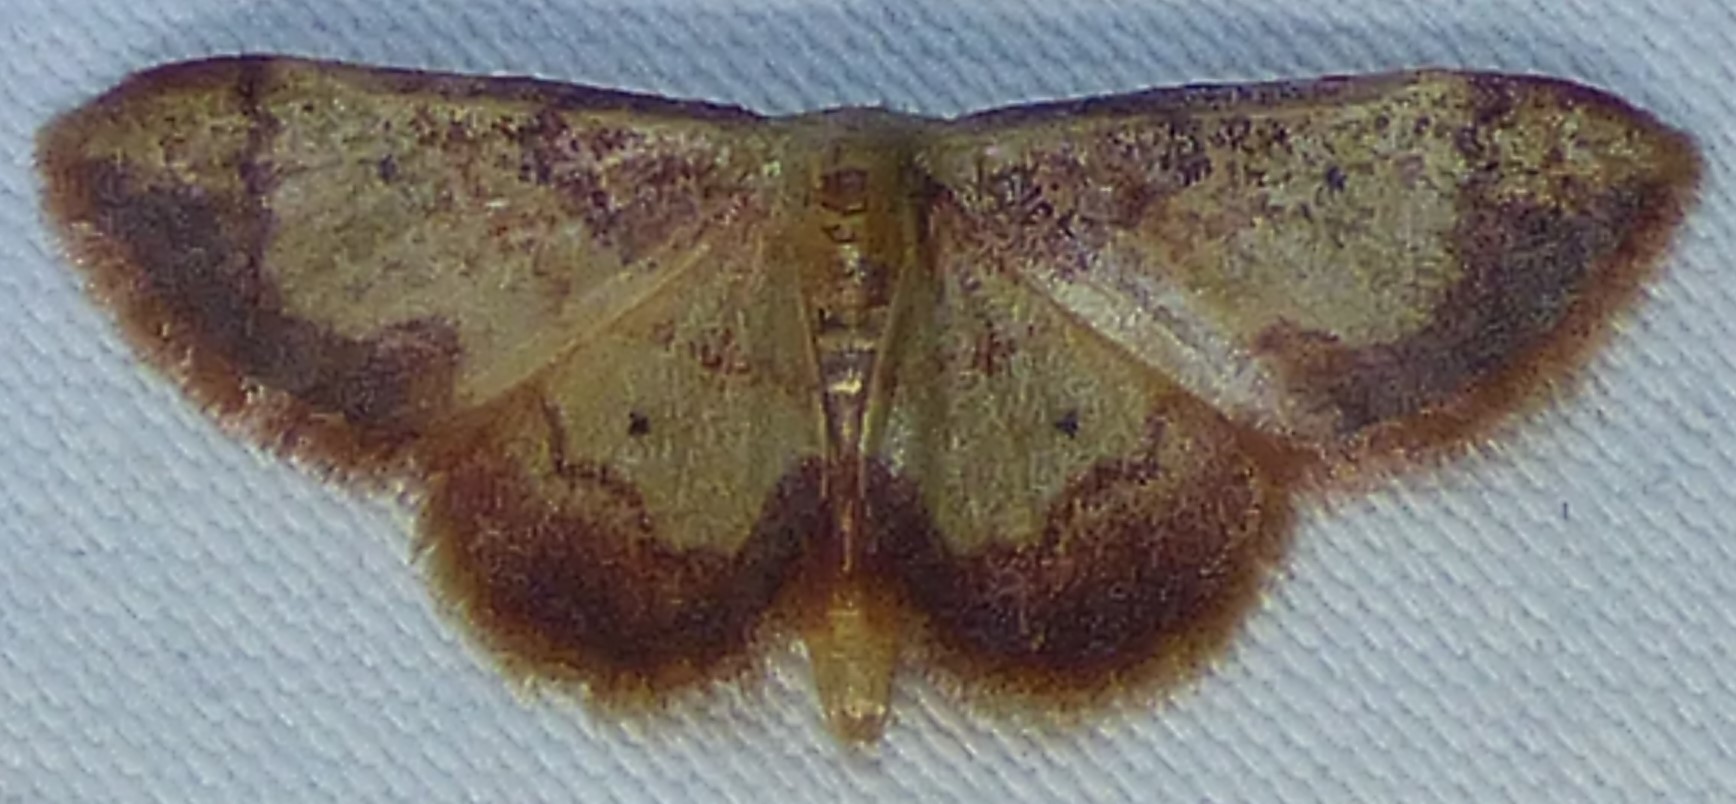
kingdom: Animalia
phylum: Arthropoda
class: Insecta
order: Lepidoptera
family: Geometridae
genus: Idaea
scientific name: Idaea demissaria
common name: Red-bordered wave
